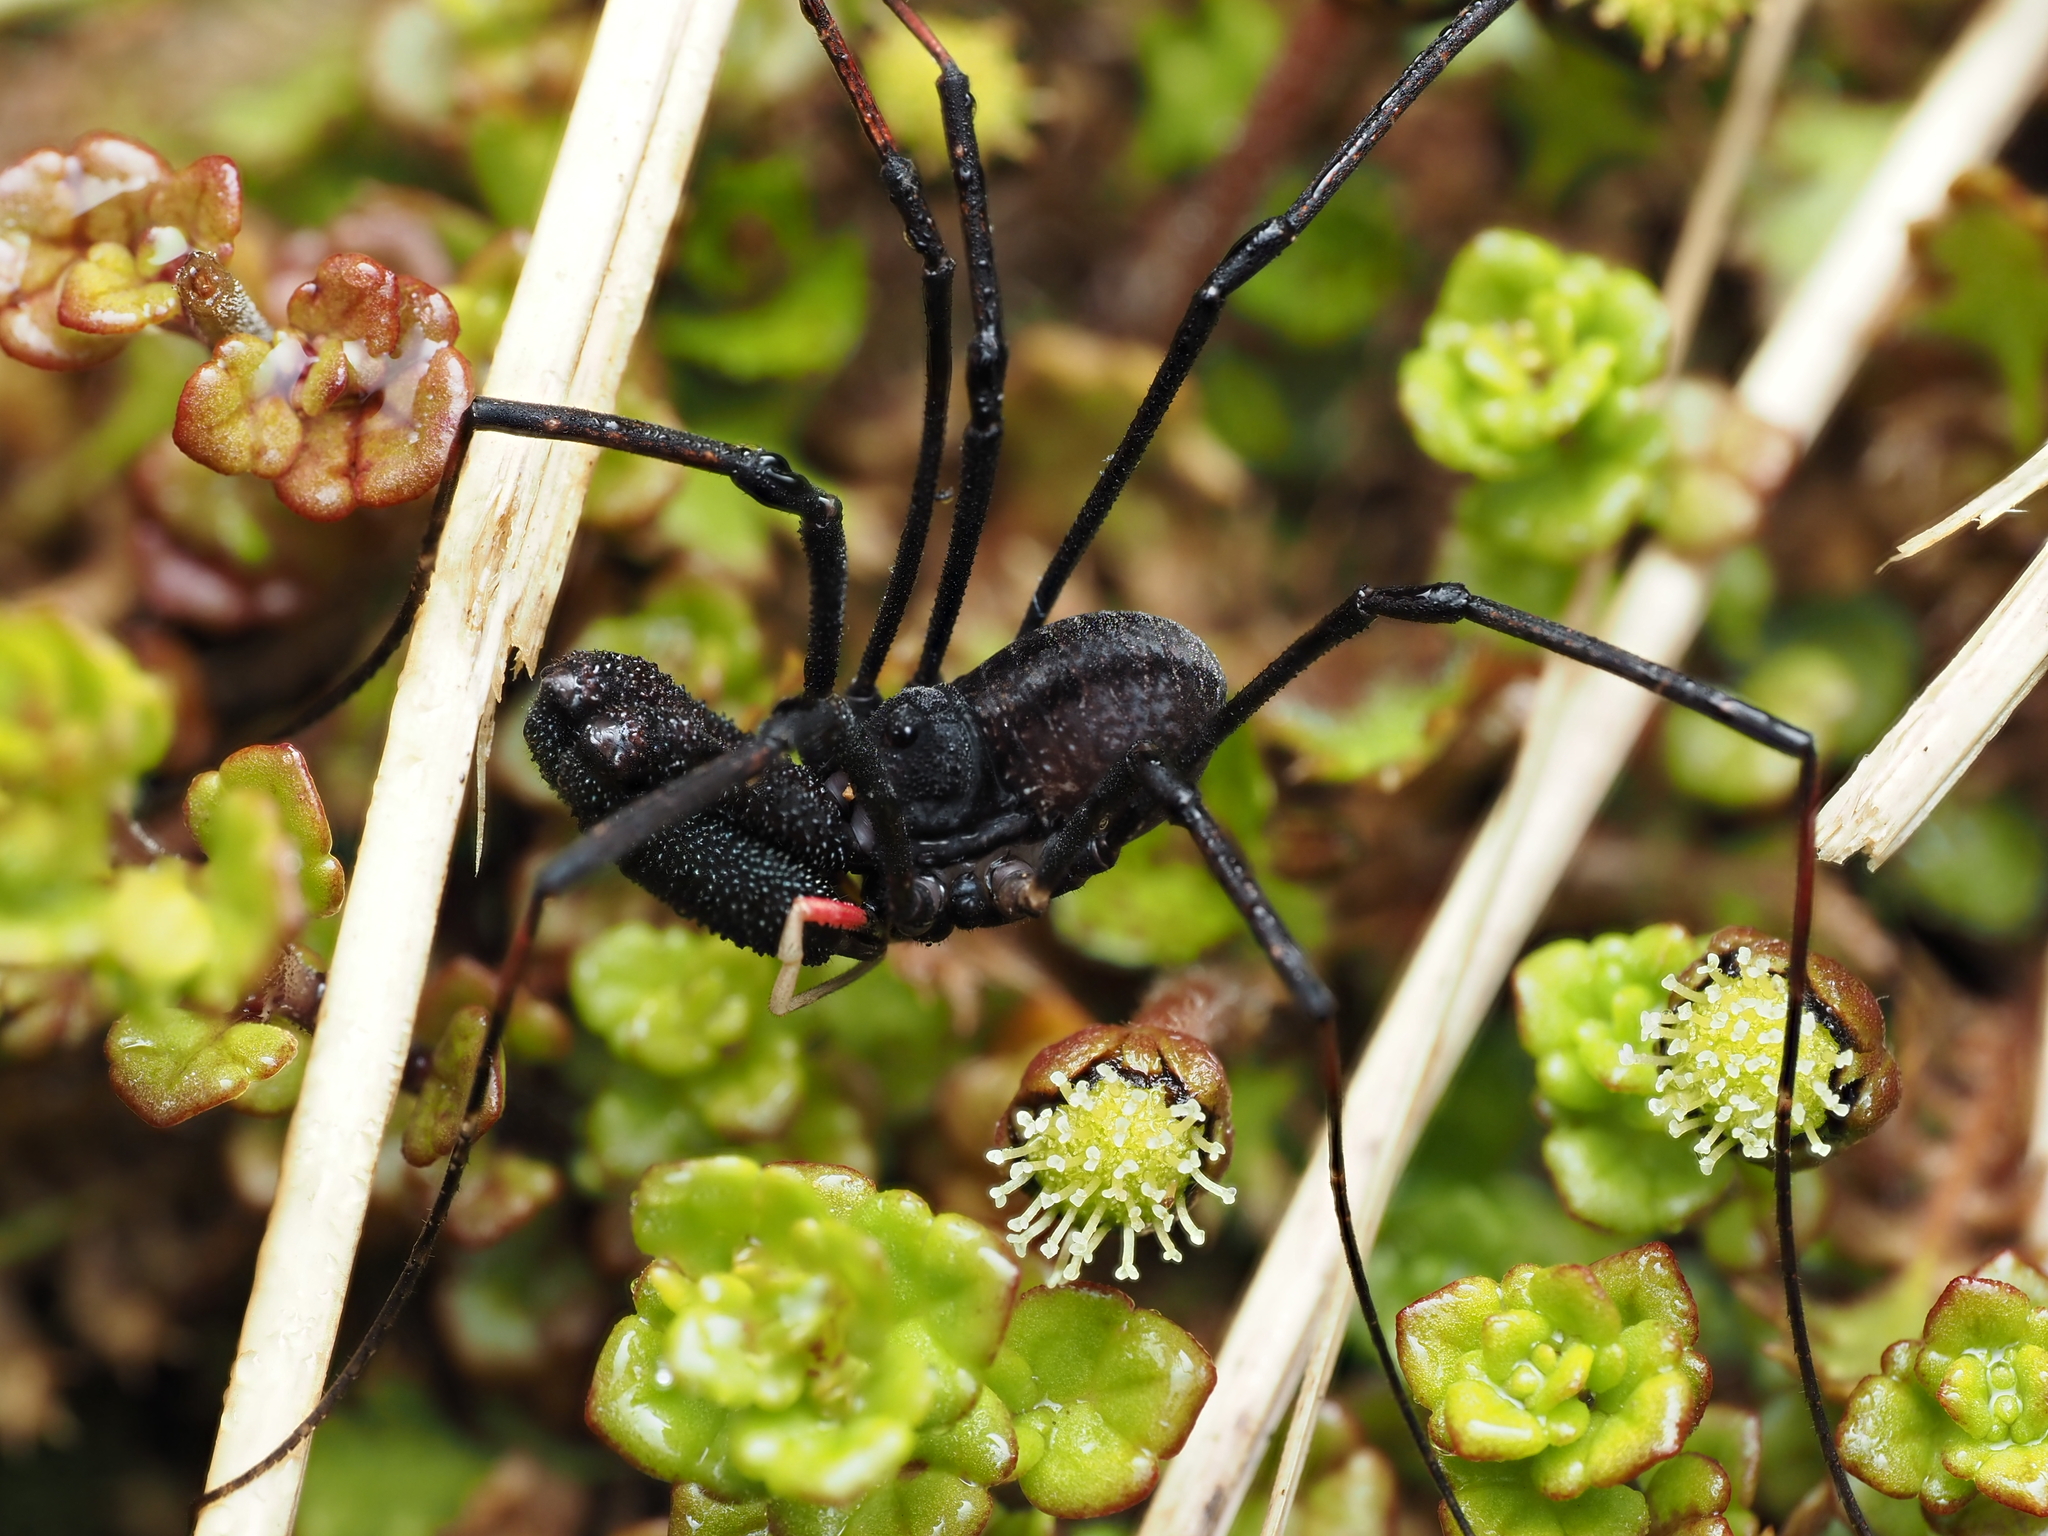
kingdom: Animalia
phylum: Arthropoda
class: Arachnida
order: Opiliones
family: Neopilionidae
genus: Forsteropsalis
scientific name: Forsteropsalis inconstans
